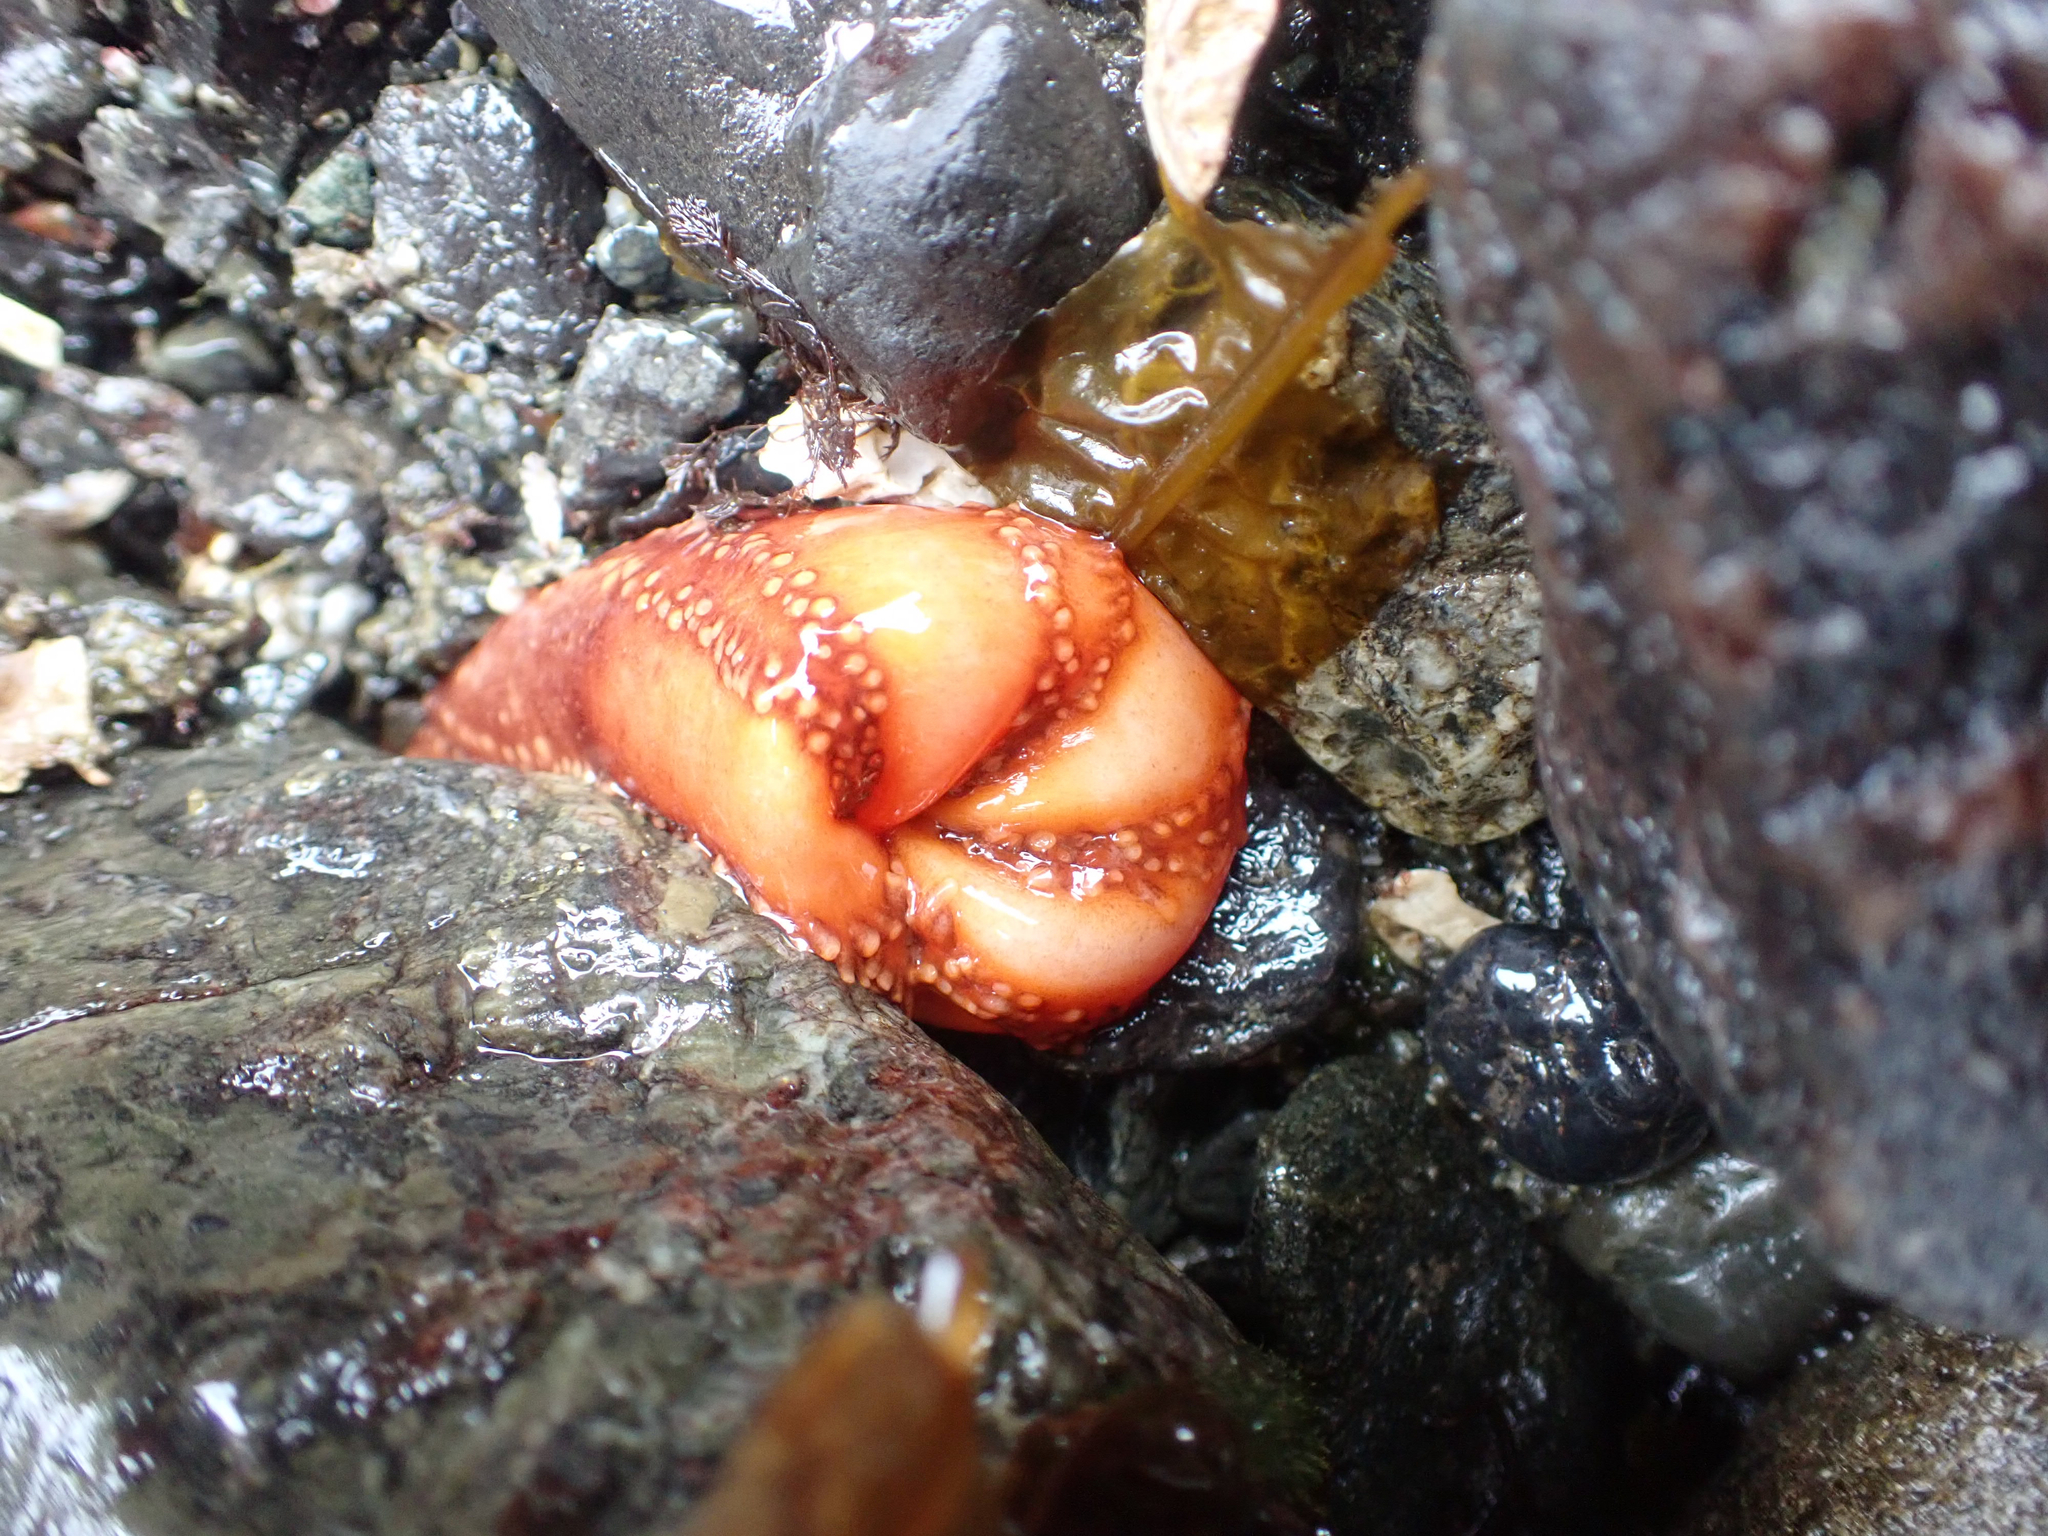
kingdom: Animalia
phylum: Echinodermata
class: Holothuroidea
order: Dendrochirotida
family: Cucumariidae
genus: Cucumaria
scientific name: Cucumaria miniata
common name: Orange sea cucumber
